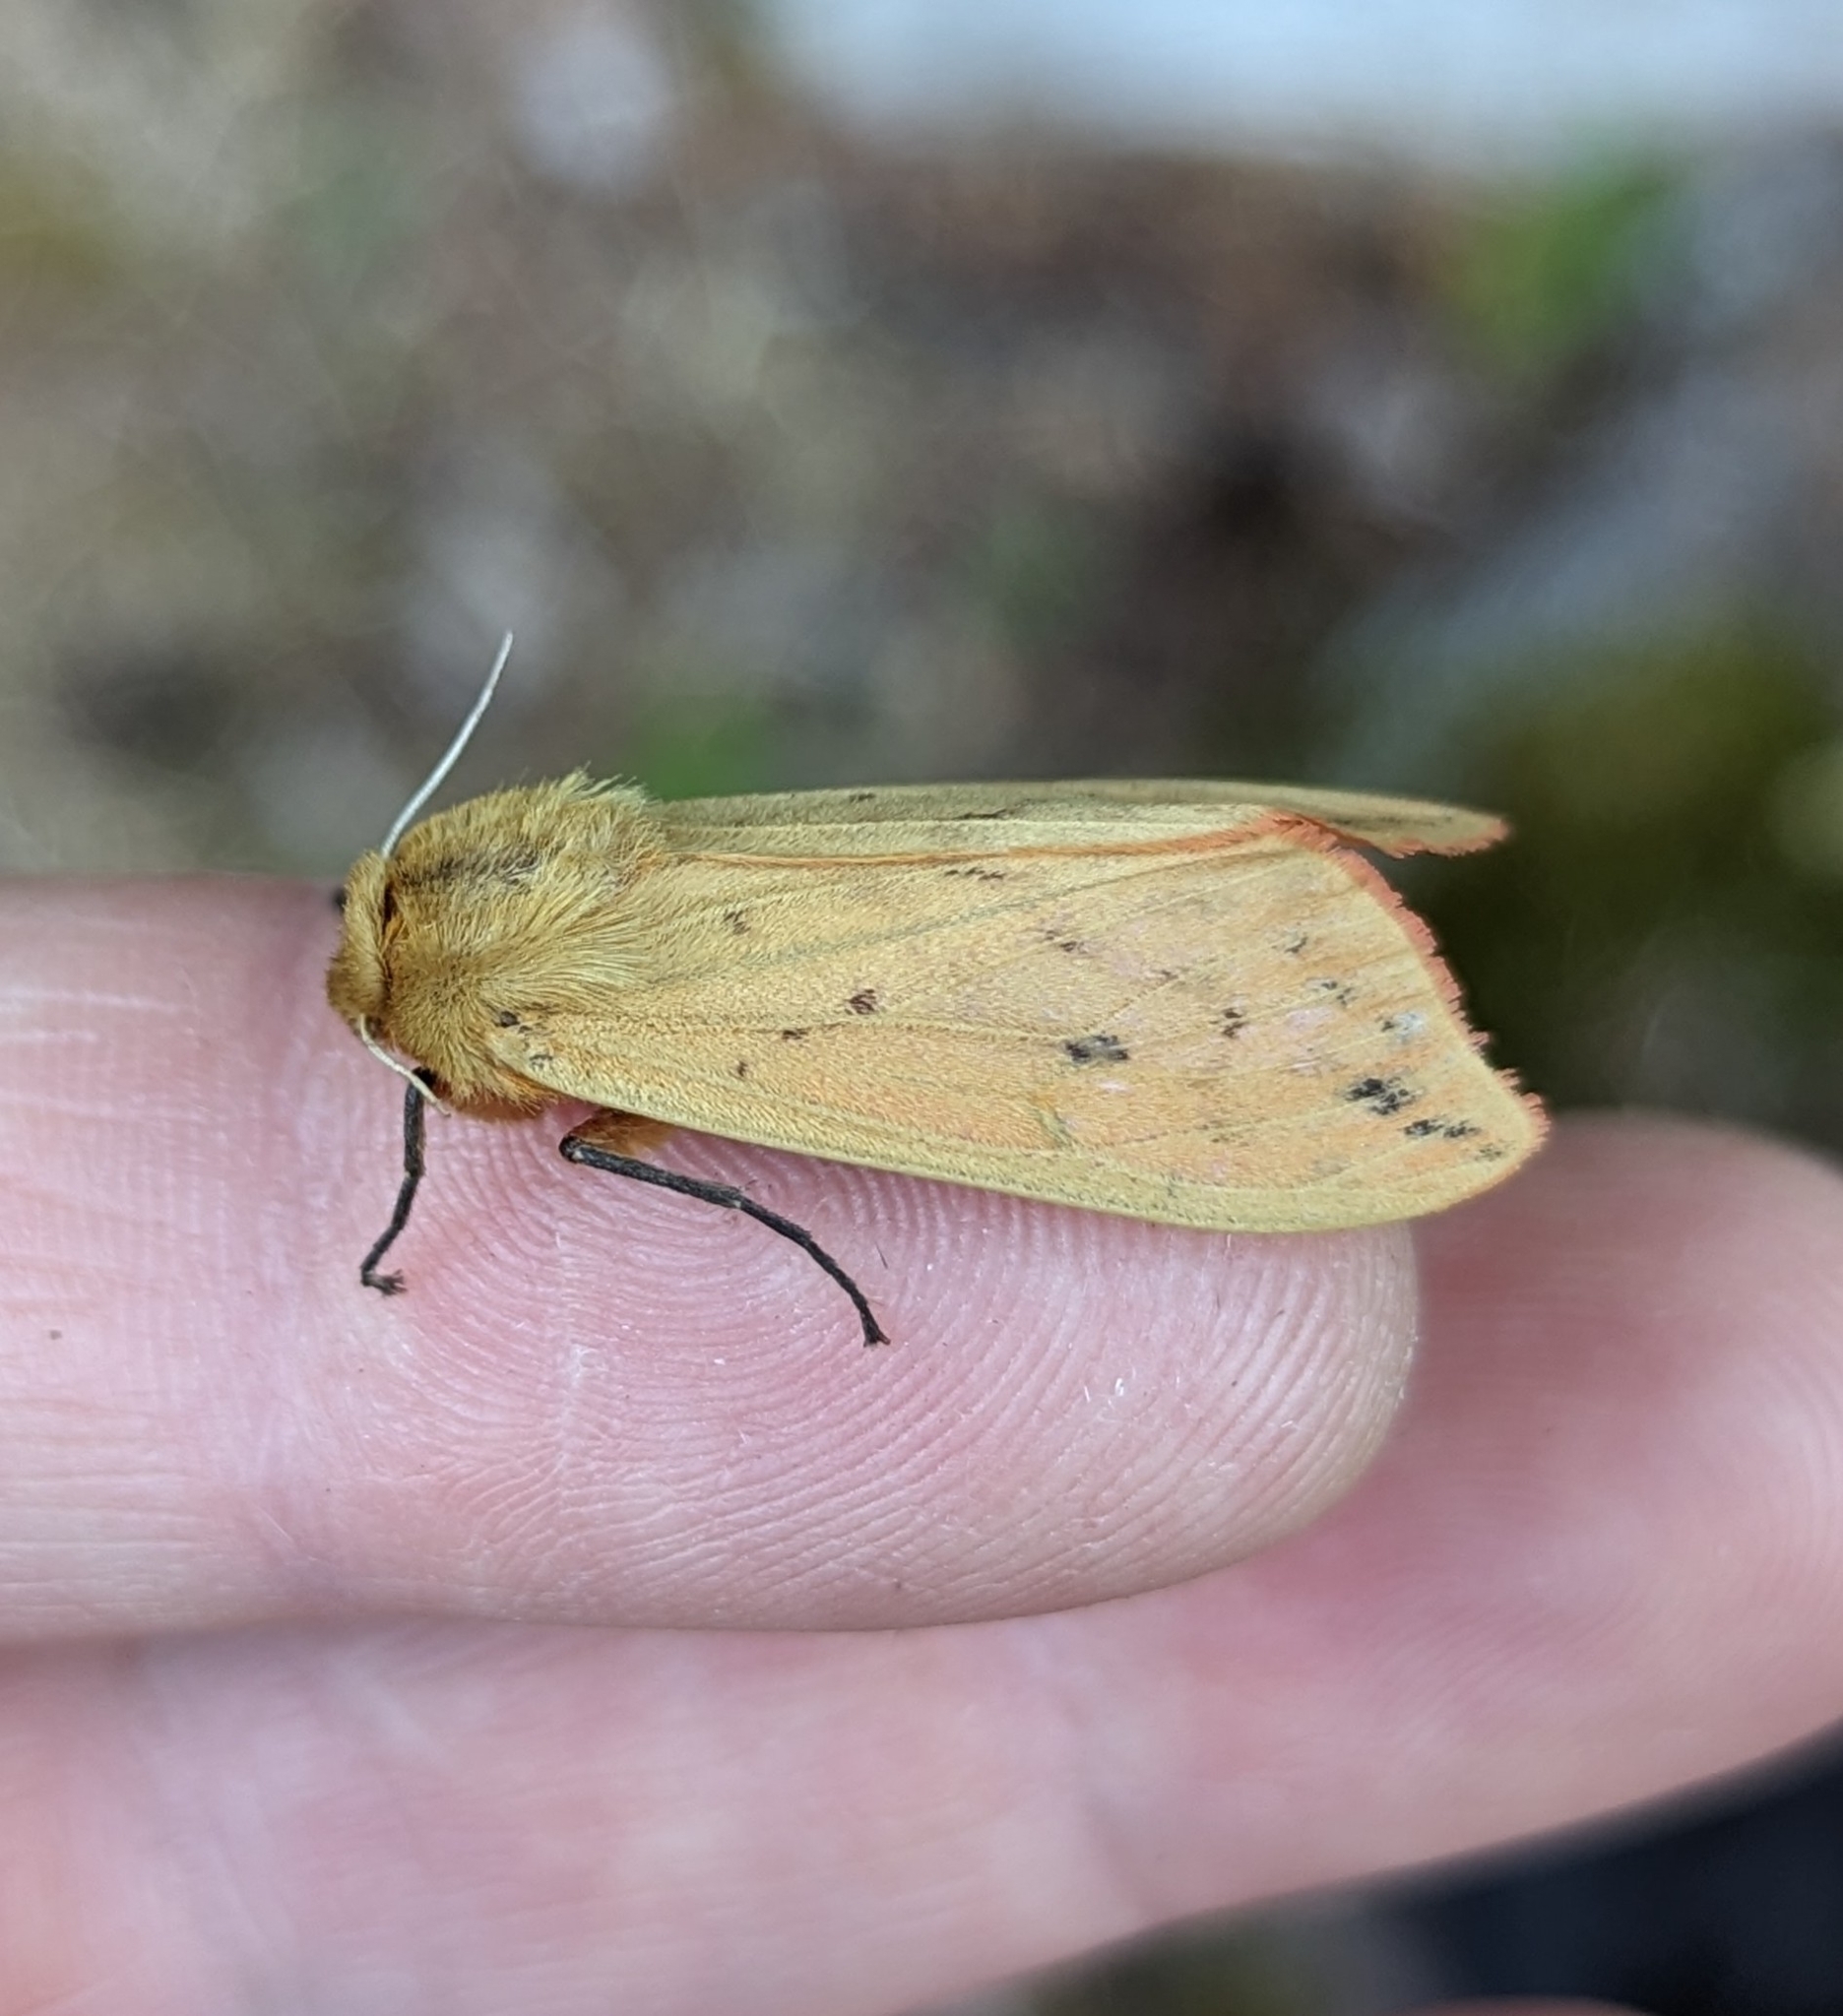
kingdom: Animalia
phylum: Arthropoda
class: Insecta
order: Lepidoptera
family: Erebidae
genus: Pyrrharctia
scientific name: Pyrrharctia isabella
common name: Isabella tiger moth
